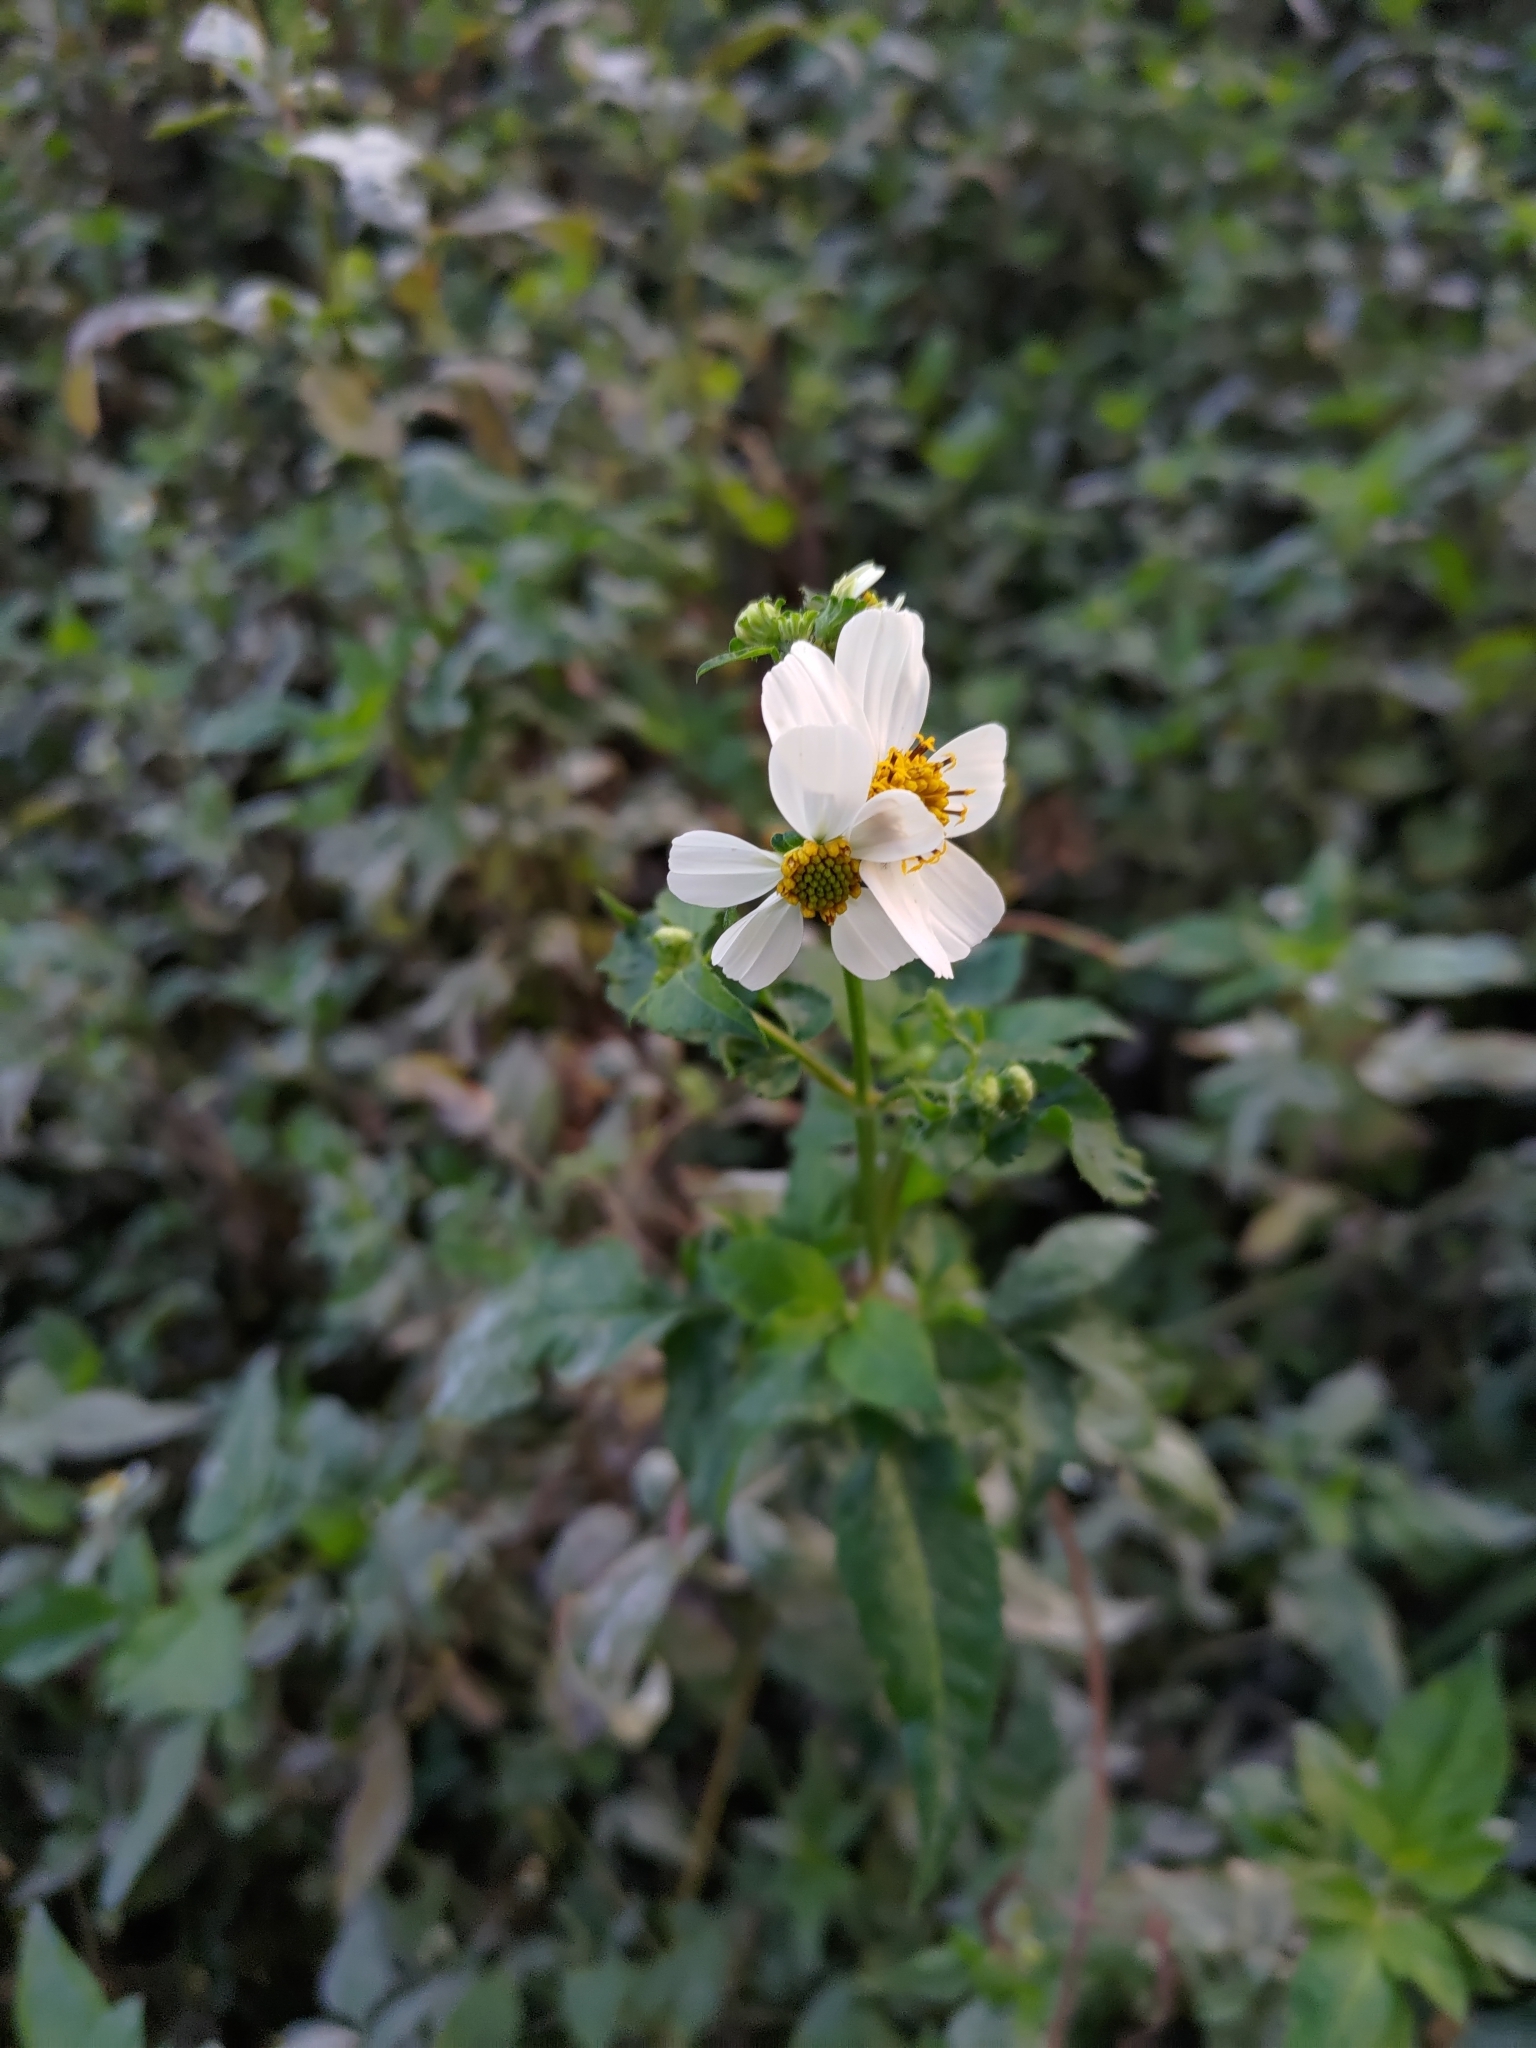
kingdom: Plantae
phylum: Tracheophyta
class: Magnoliopsida
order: Asterales
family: Asteraceae
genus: Bidens
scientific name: Bidens alba
